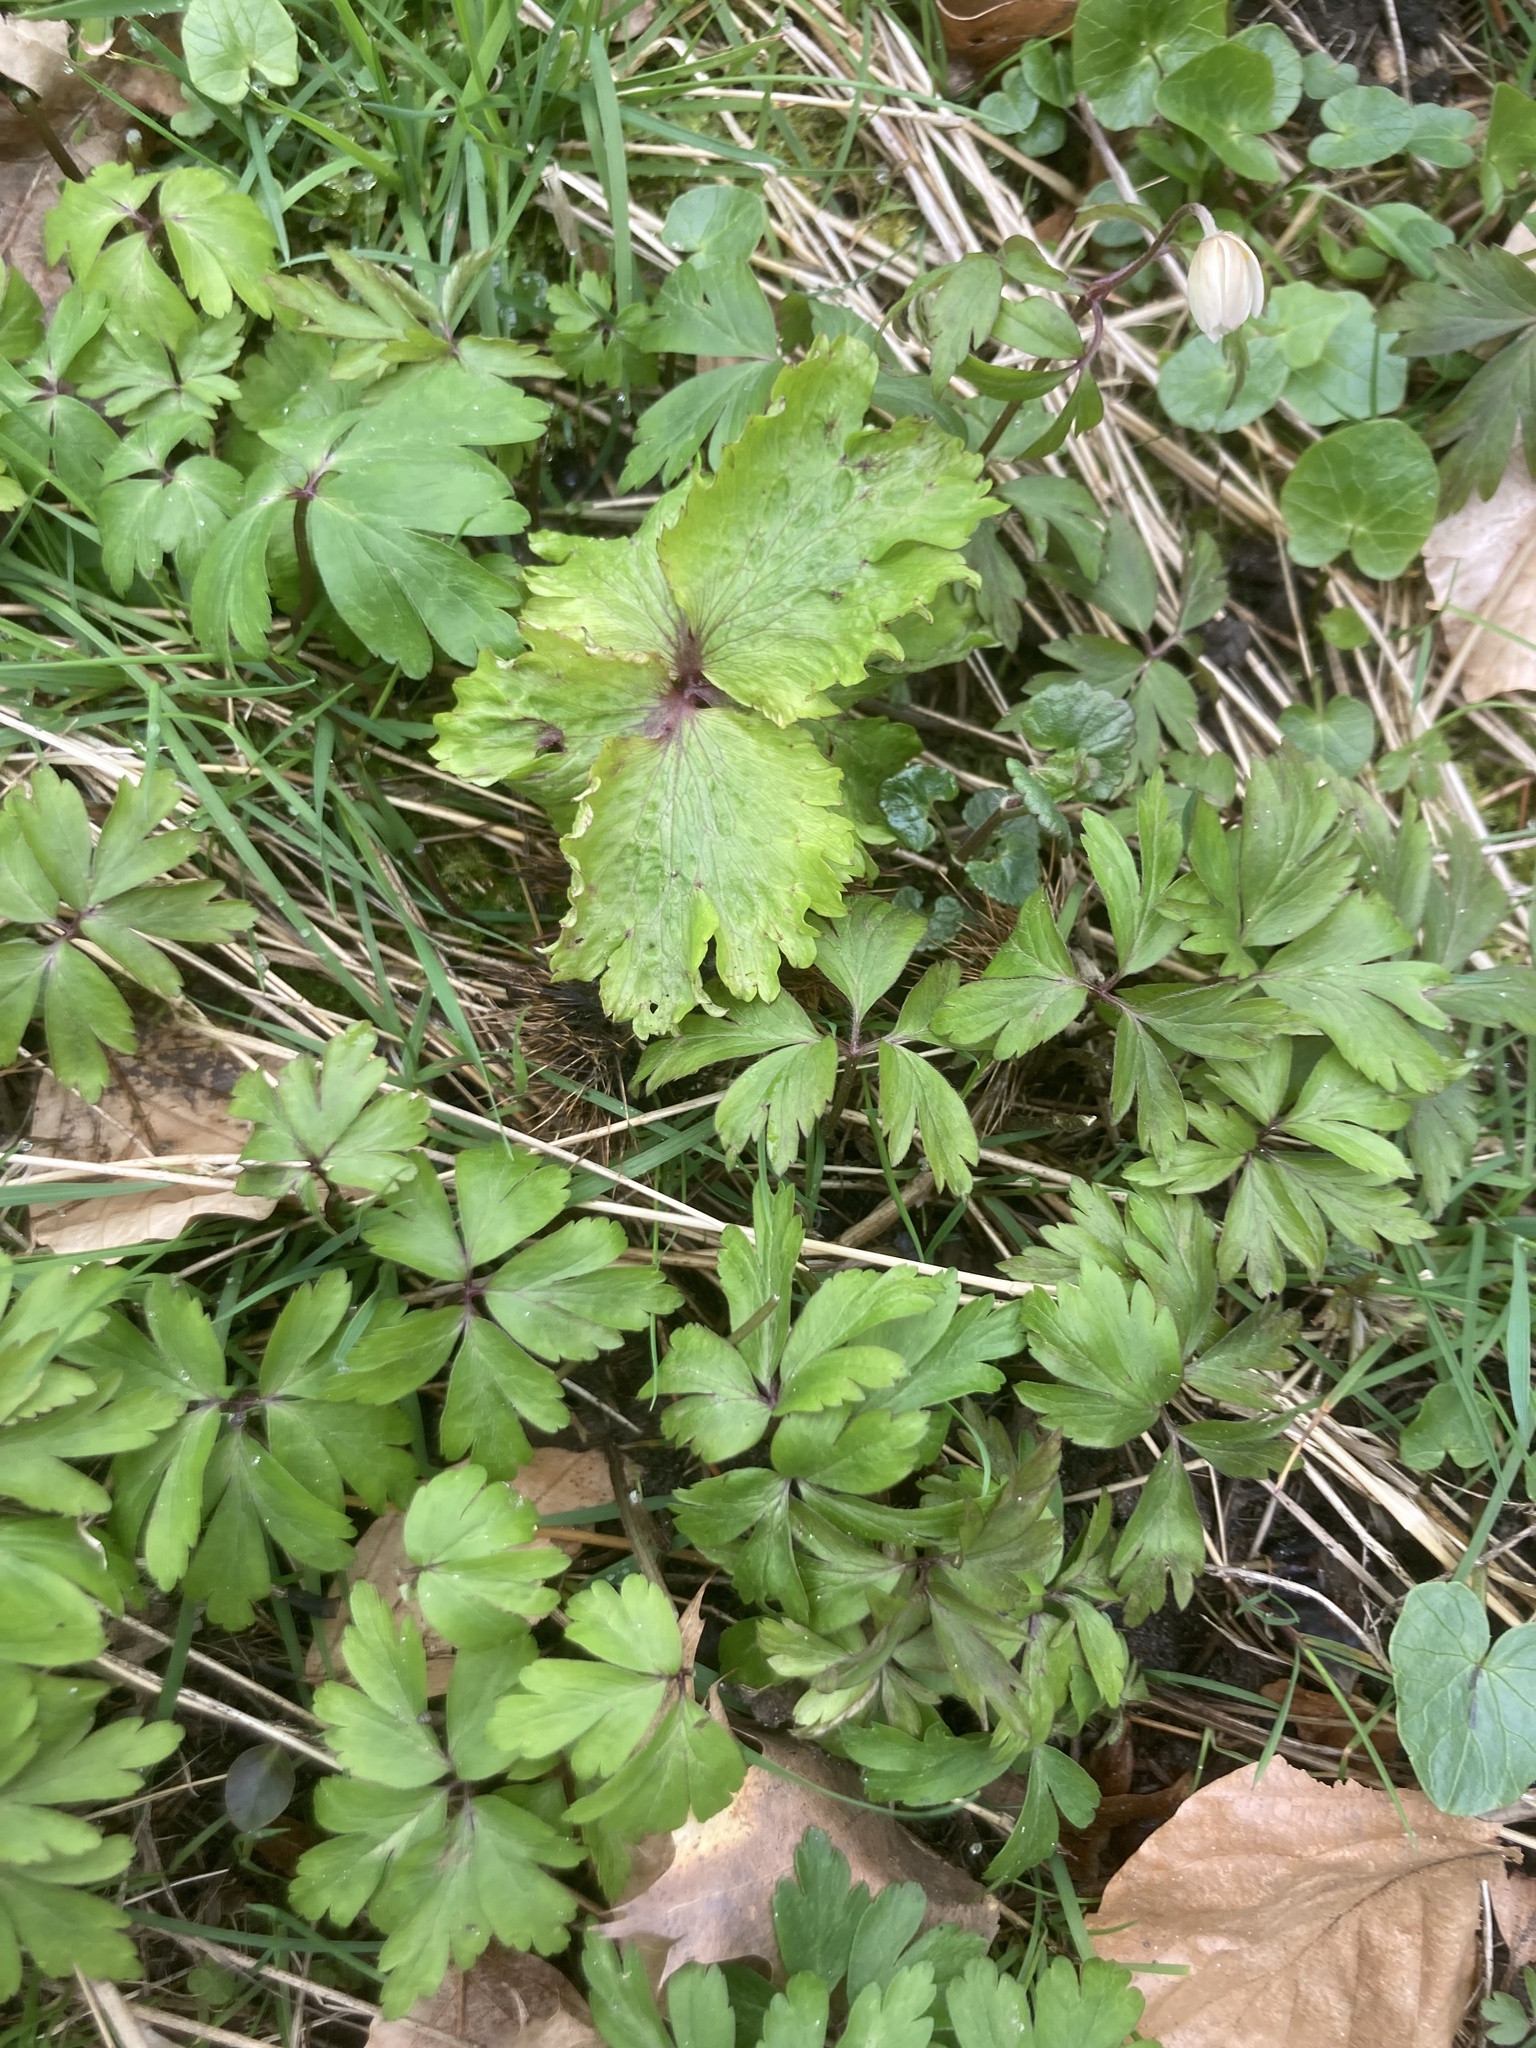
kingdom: Plantae
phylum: Tracheophyta
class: Magnoliopsida
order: Ranunculales
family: Ranunculaceae
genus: Anemone
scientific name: Anemone nemorosa
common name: Wood anemone
